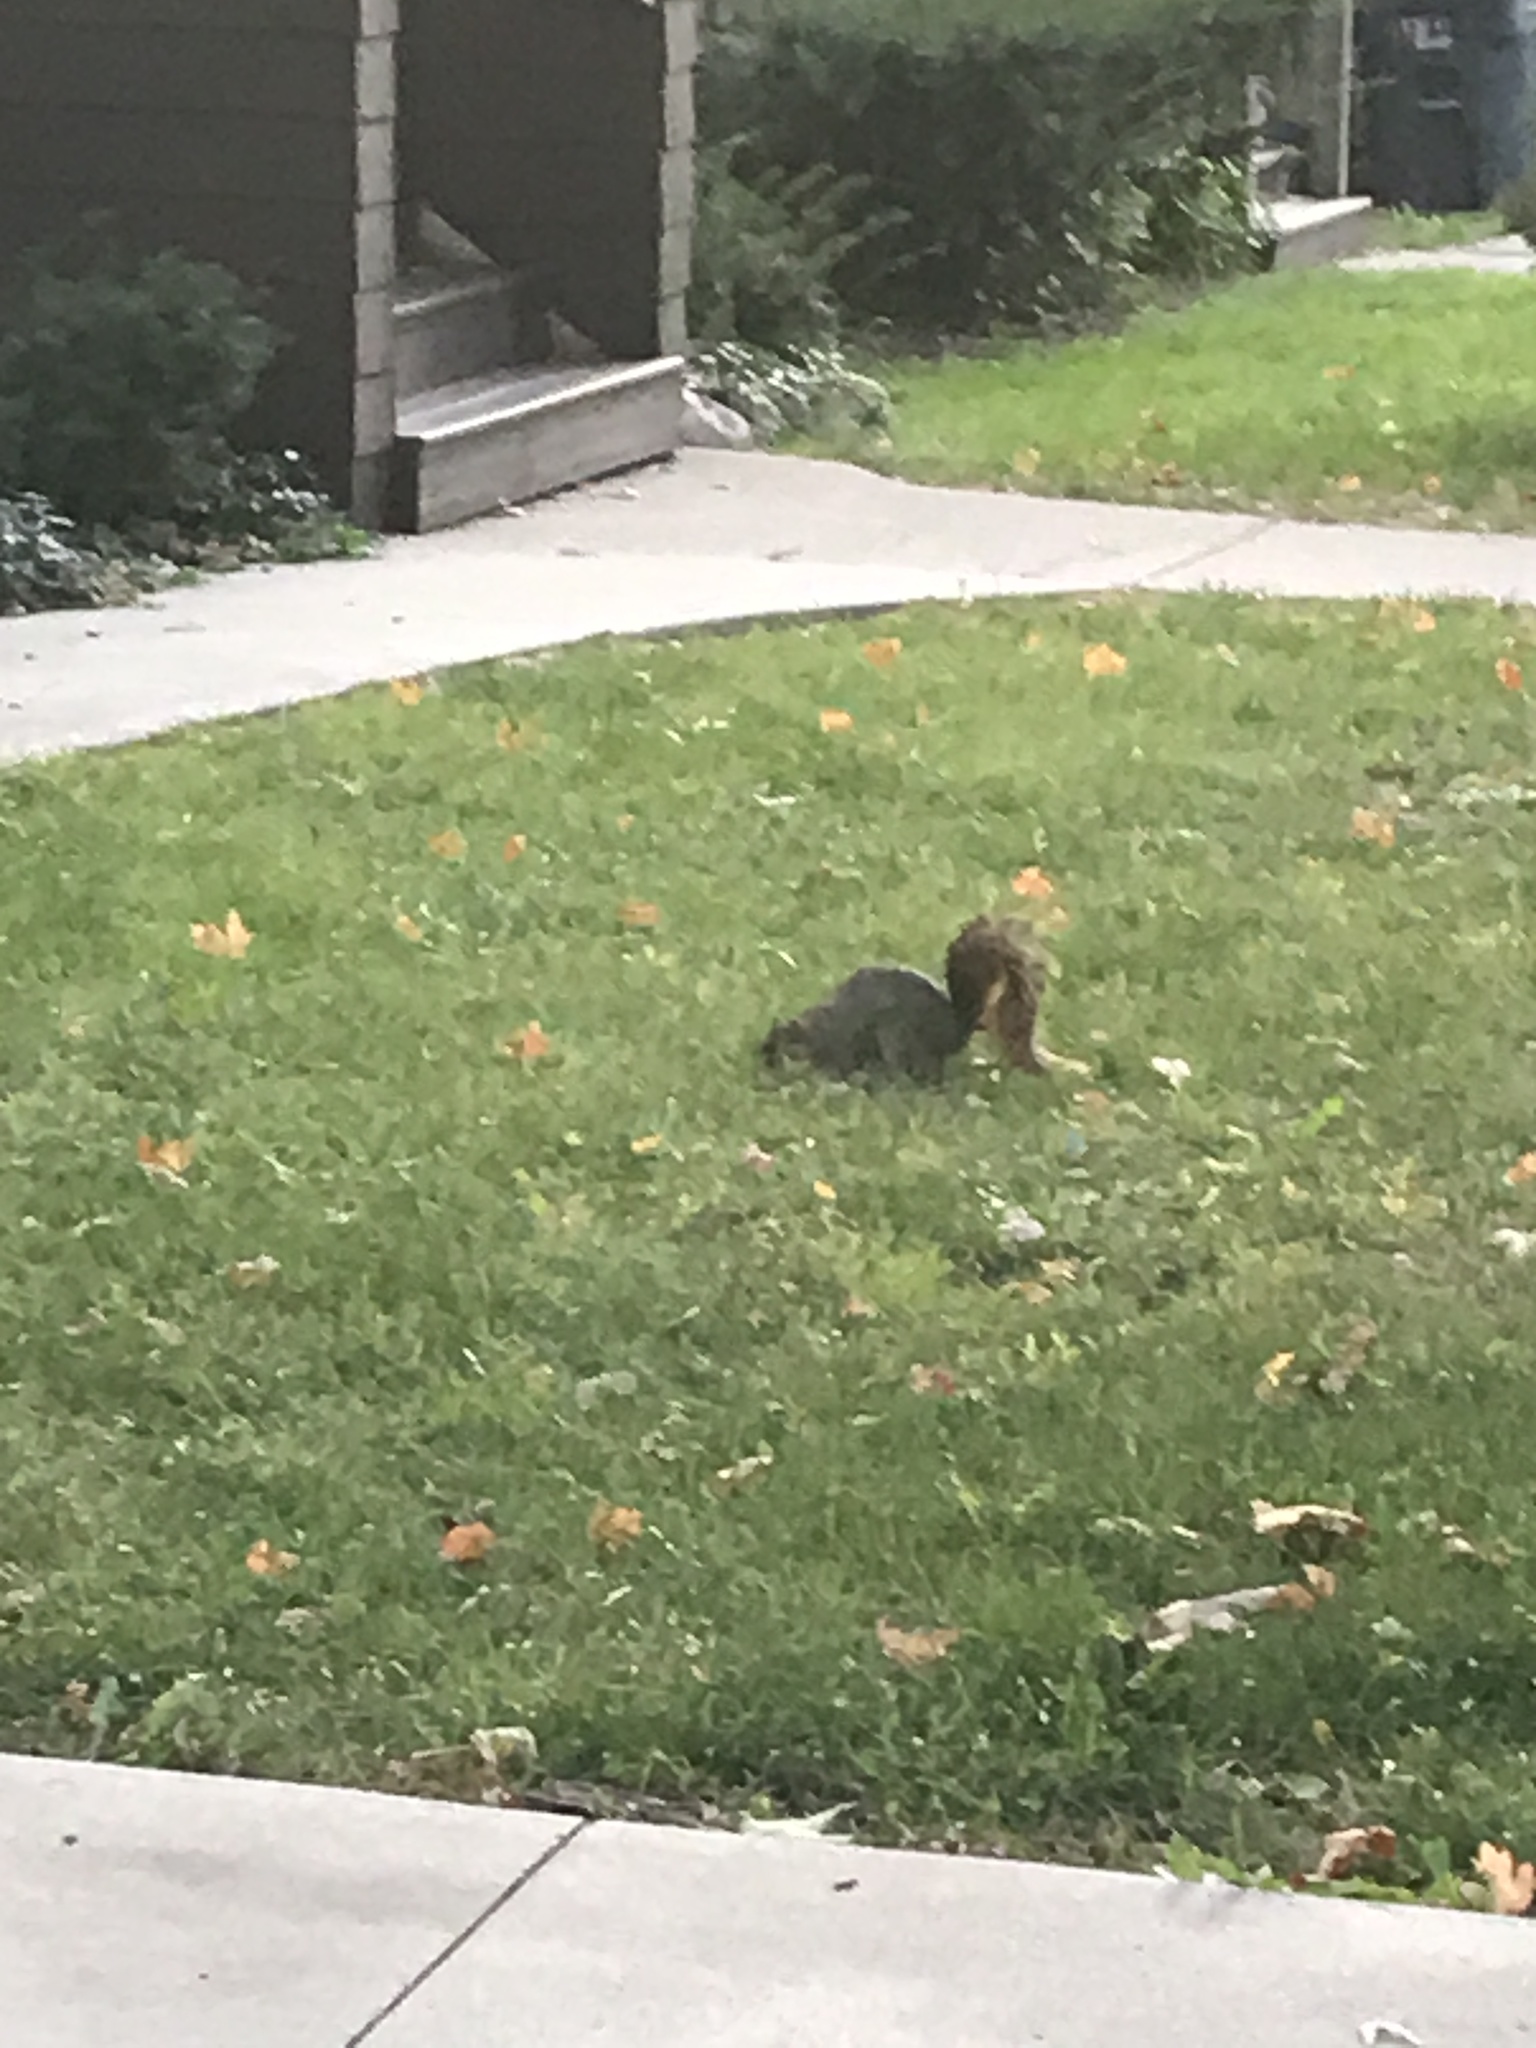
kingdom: Animalia
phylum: Chordata
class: Mammalia
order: Rodentia
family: Sciuridae
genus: Sciurus
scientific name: Sciurus niger
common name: Fox squirrel
